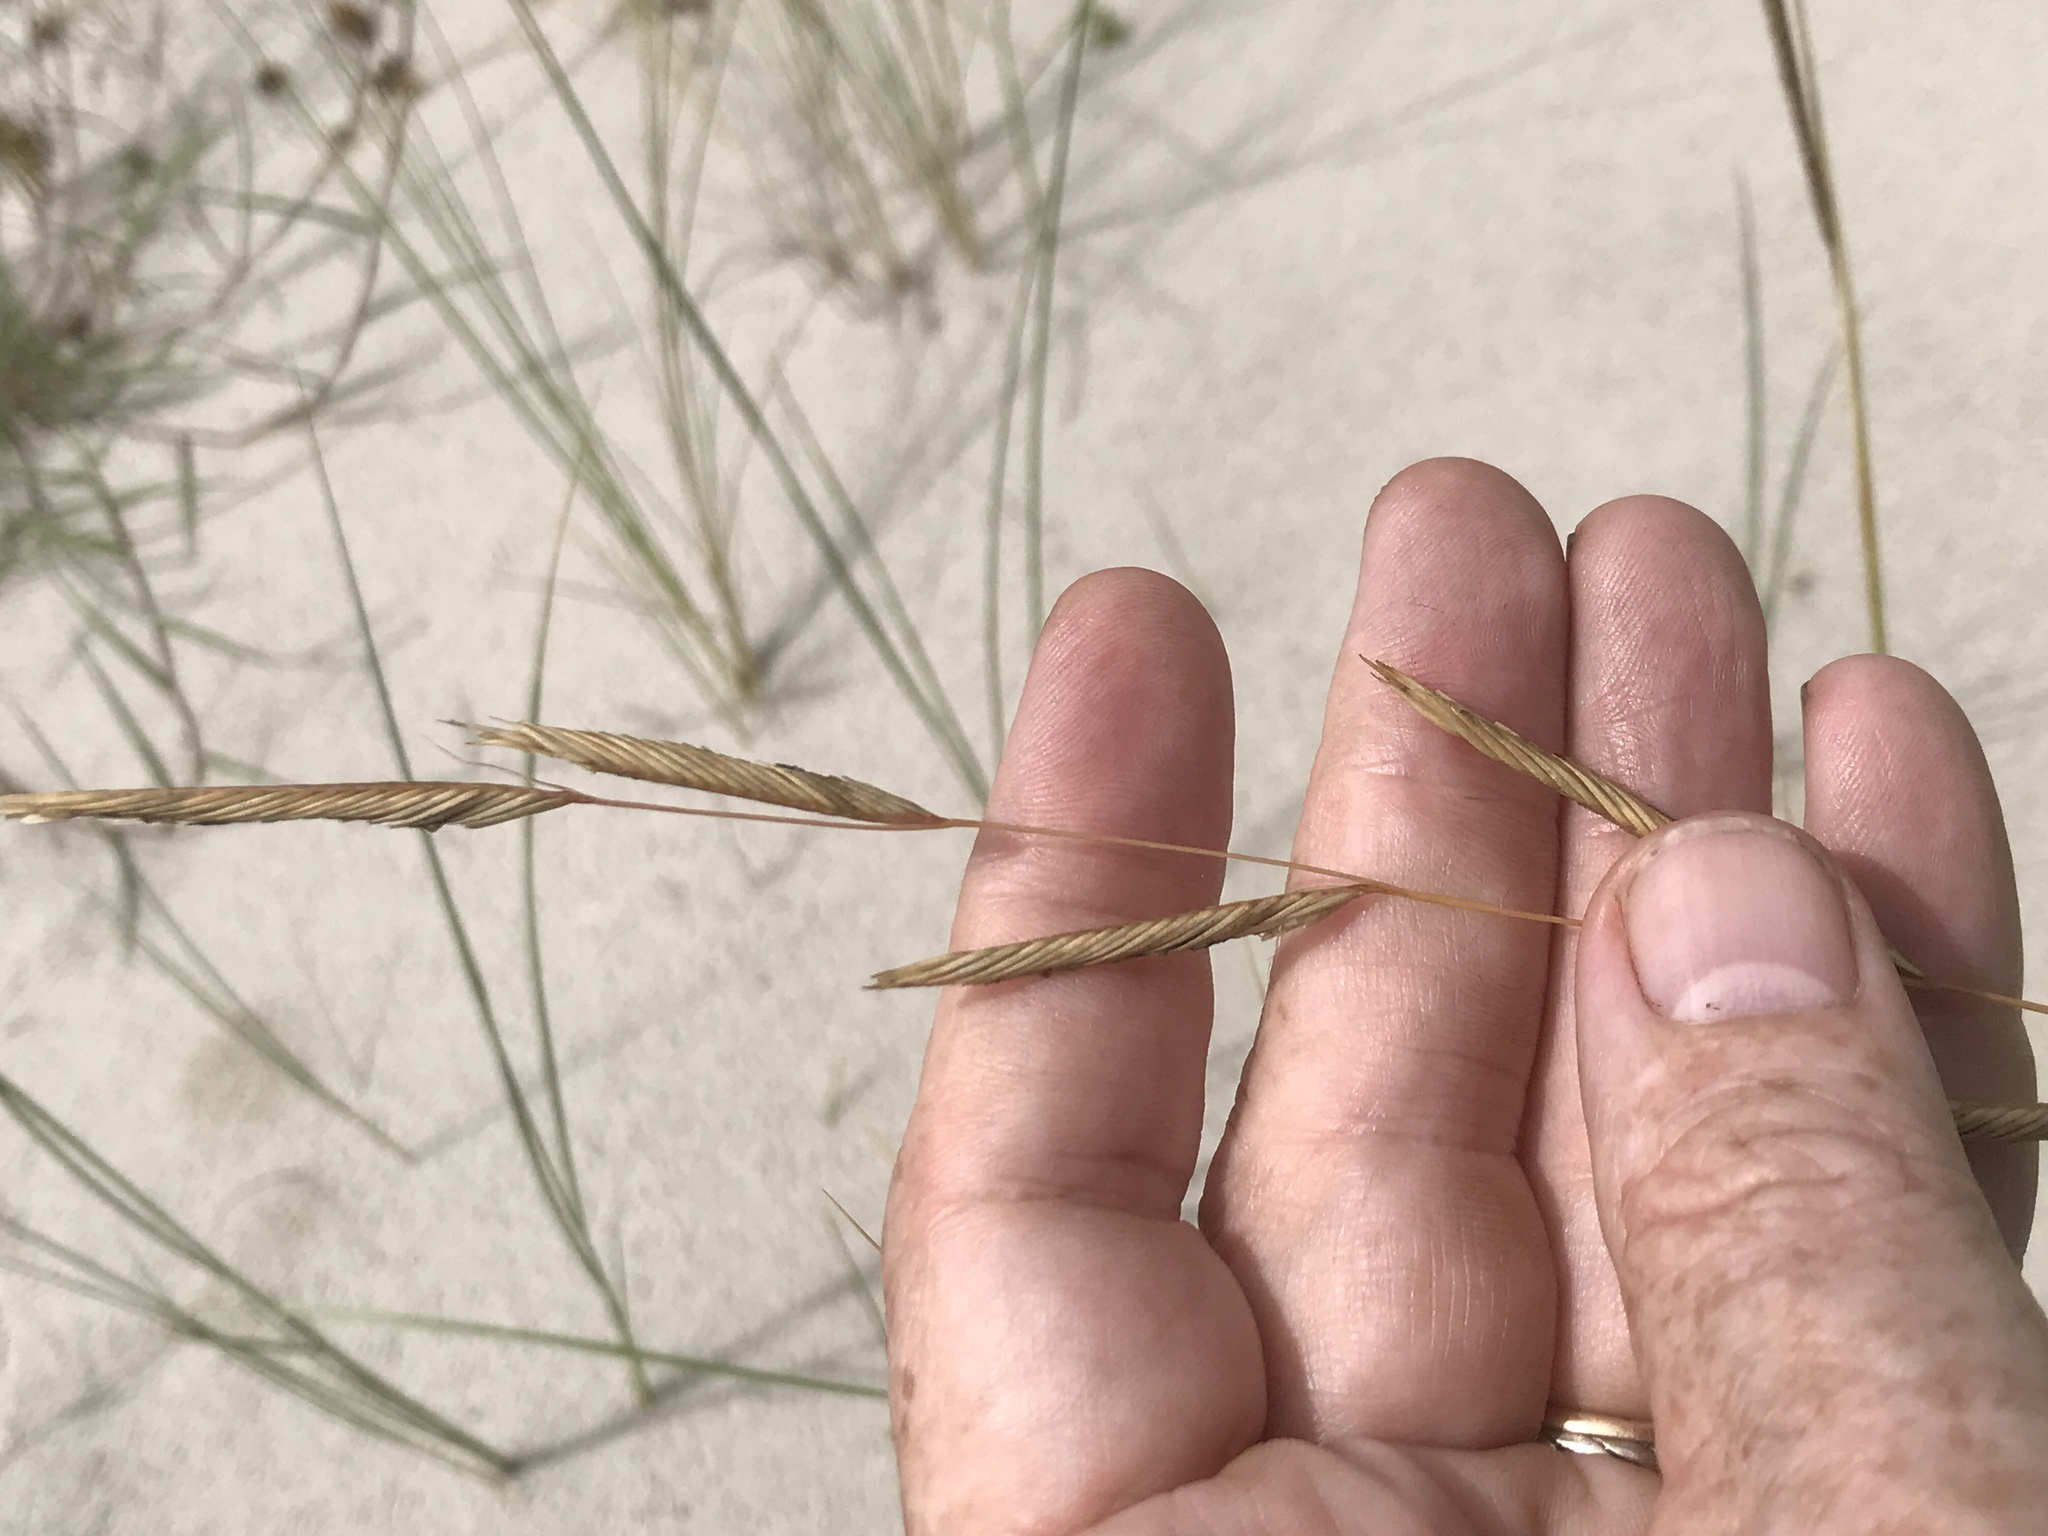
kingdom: Plantae
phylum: Tracheophyta
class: Liliopsida
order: Poales
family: Poaceae
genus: Sporobolus
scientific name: Sporobolus pumilus
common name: Highwater grass
